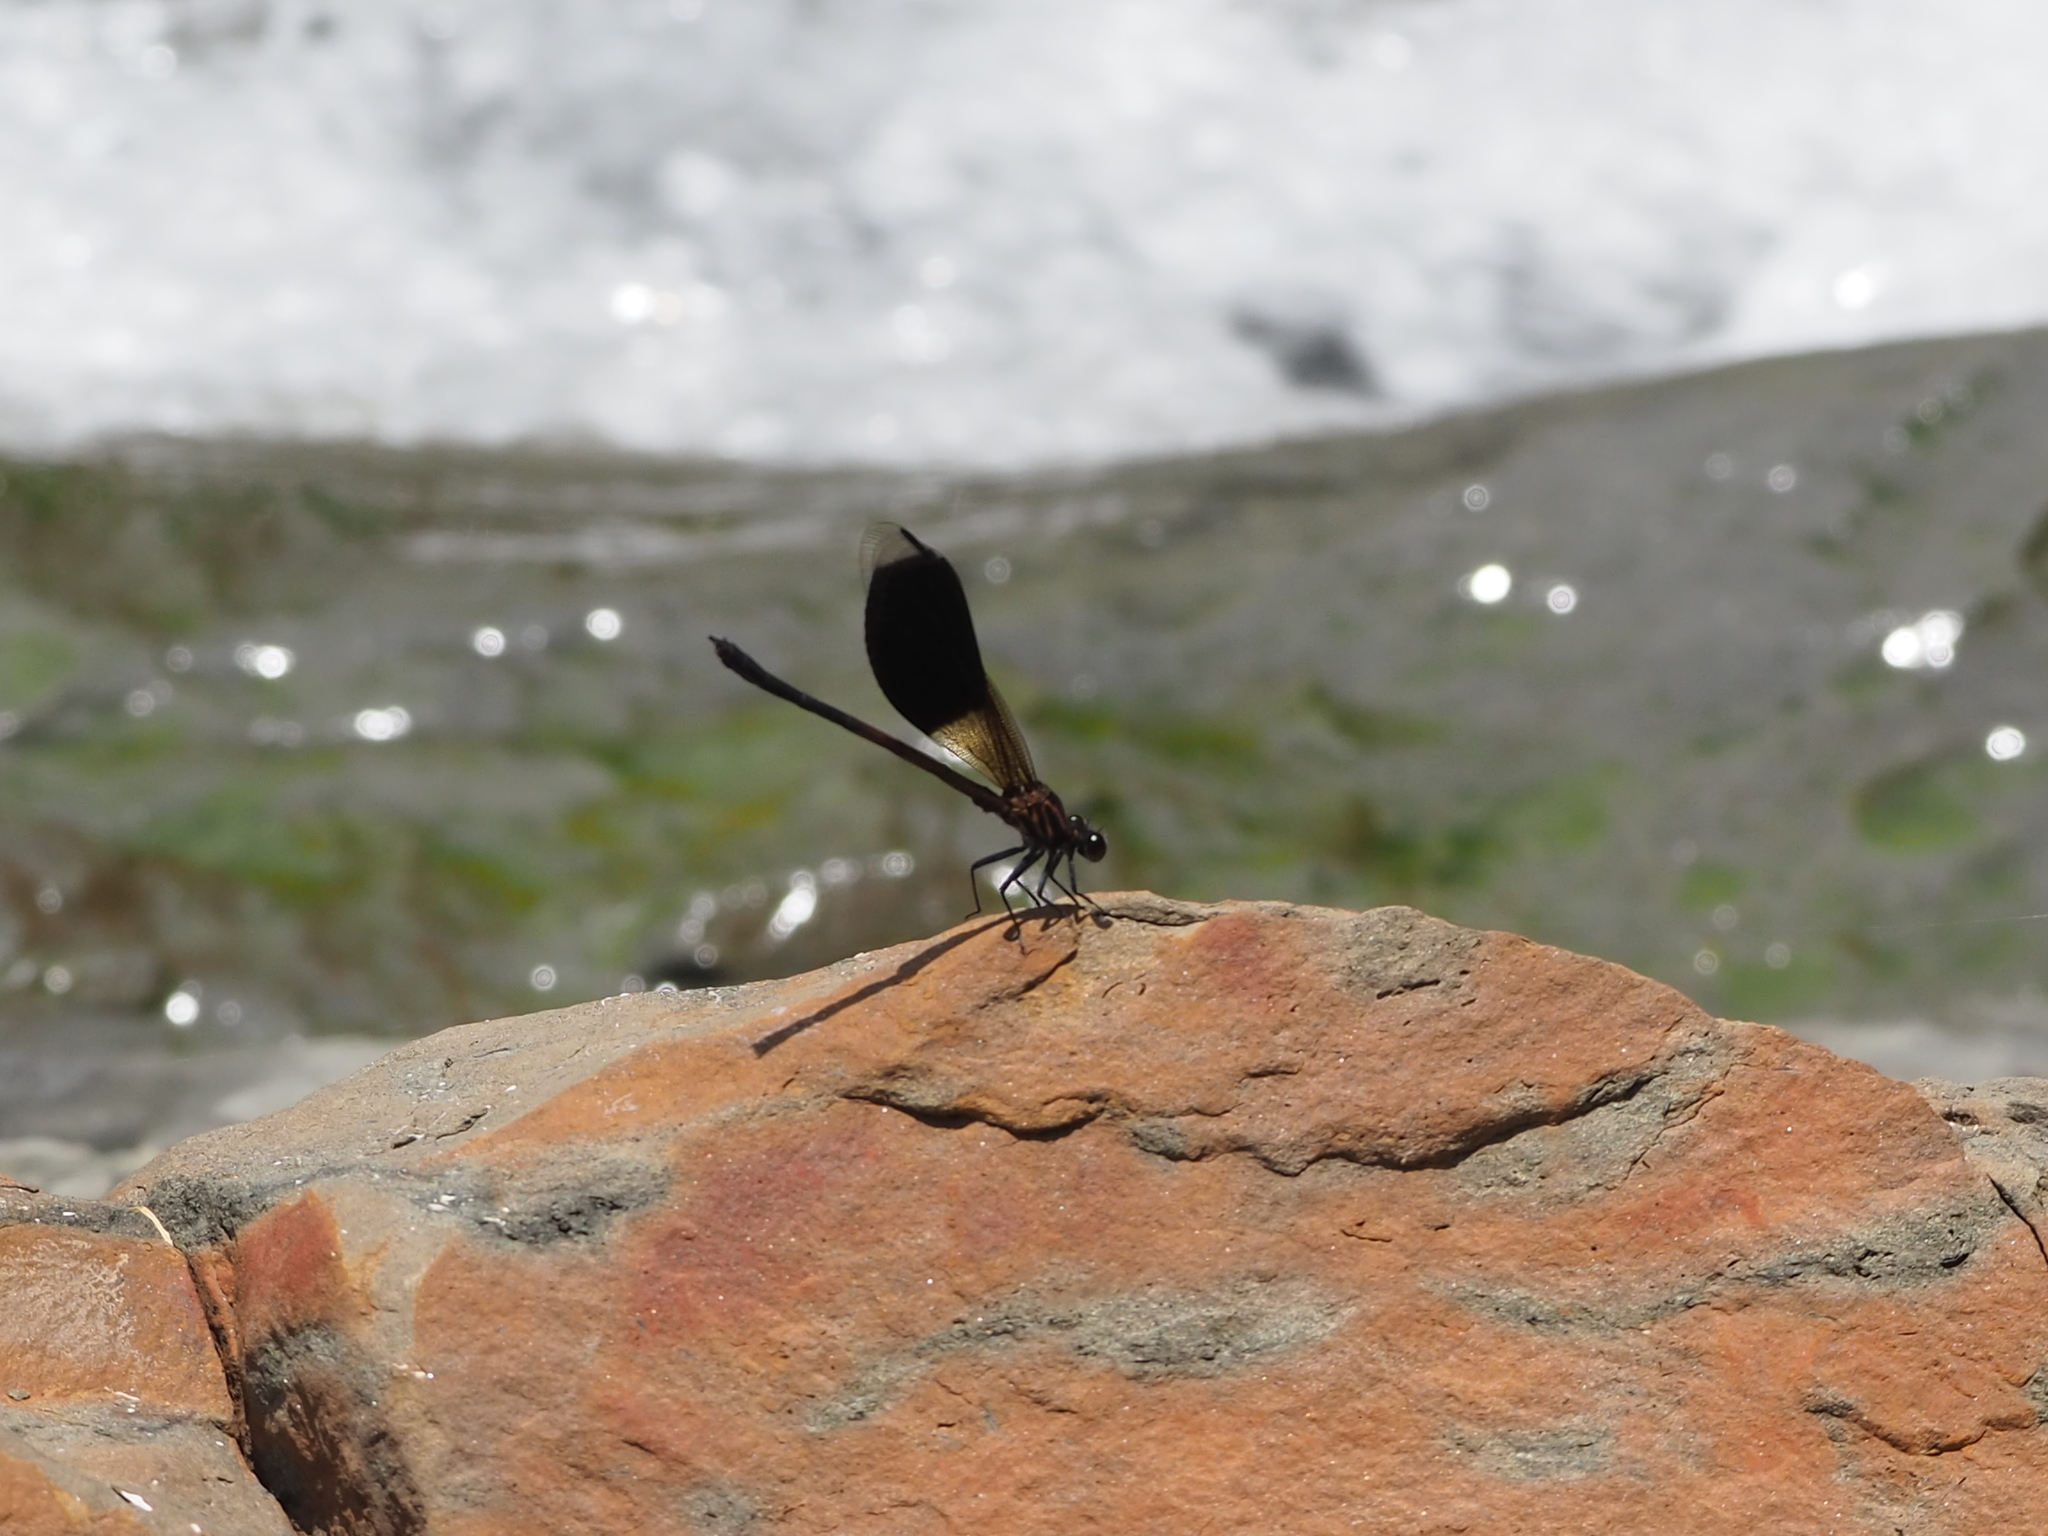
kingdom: Animalia
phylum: Arthropoda
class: Insecta
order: Odonata
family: Euphaeidae
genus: Euphaea
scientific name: Euphaea formosa
